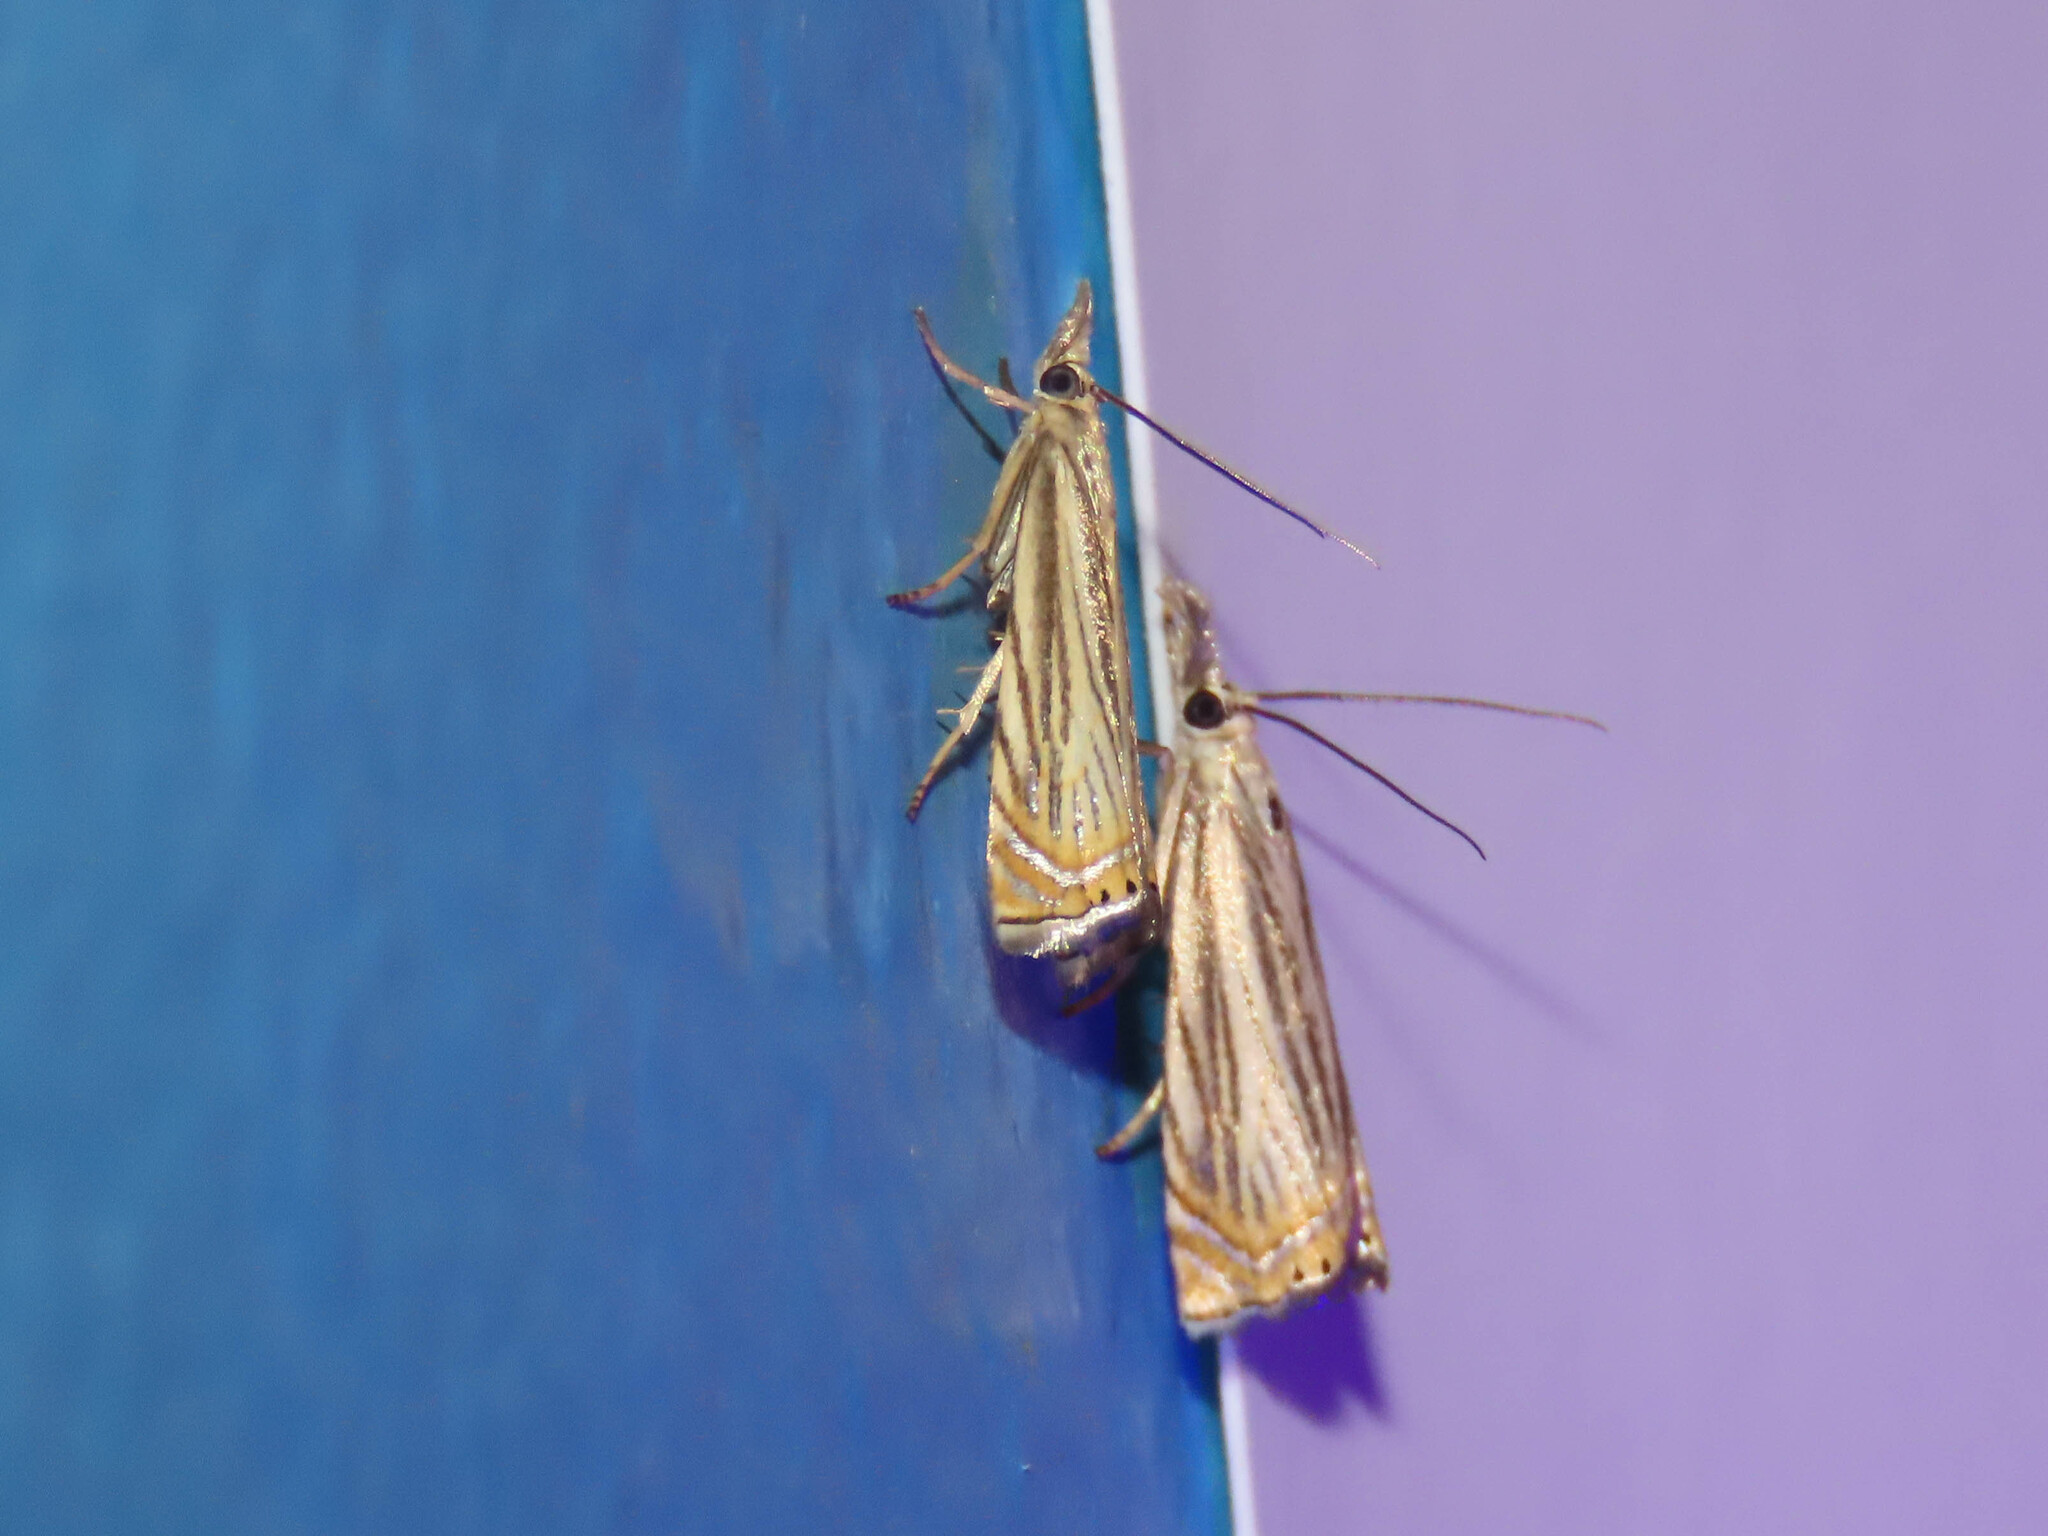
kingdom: Animalia
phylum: Arthropoda
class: Insecta
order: Lepidoptera
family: Crambidae
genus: Chrysoteuchia
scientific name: Chrysoteuchia topiarius
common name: Topiary grass-veneer
